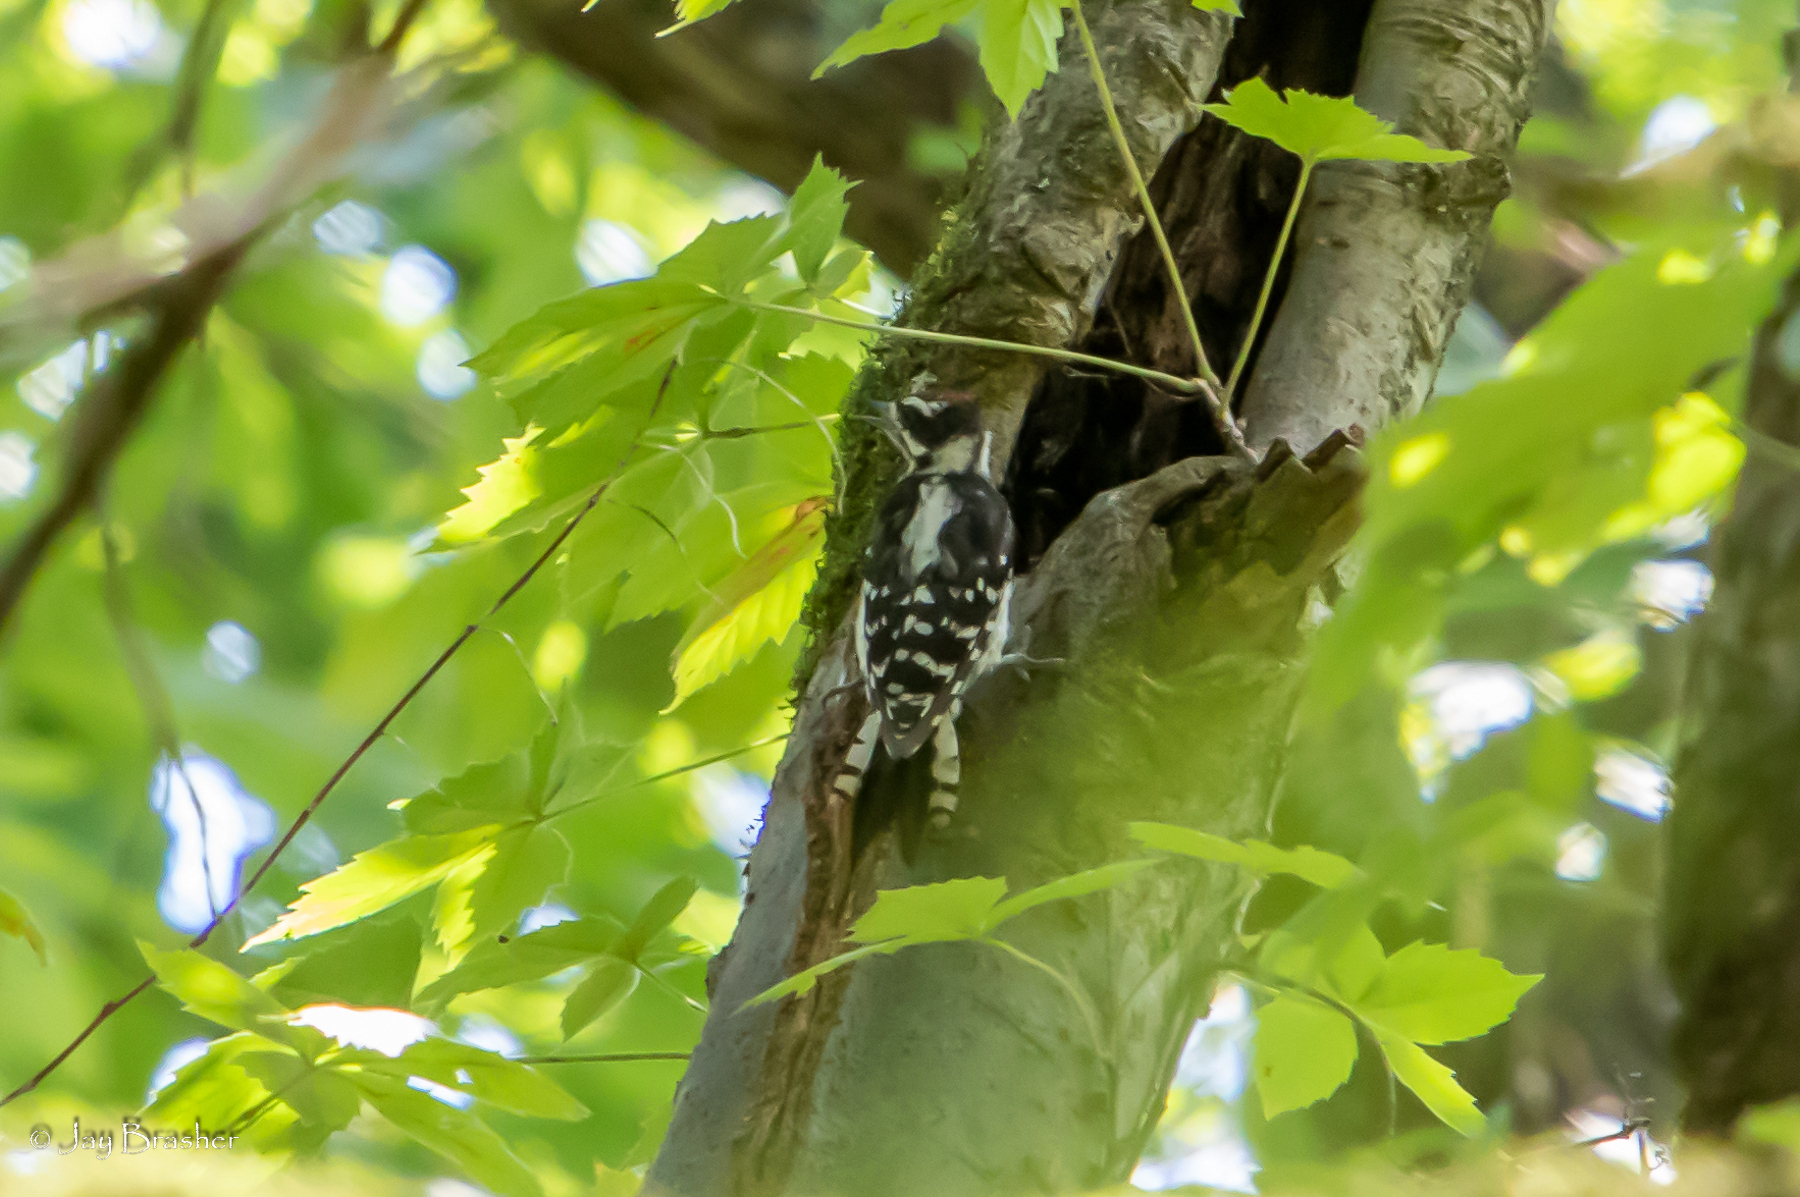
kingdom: Animalia
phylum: Chordata
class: Aves
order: Piciformes
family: Picidae
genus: Dryobates
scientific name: Dryobates pubescens
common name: Downy woodpecker
